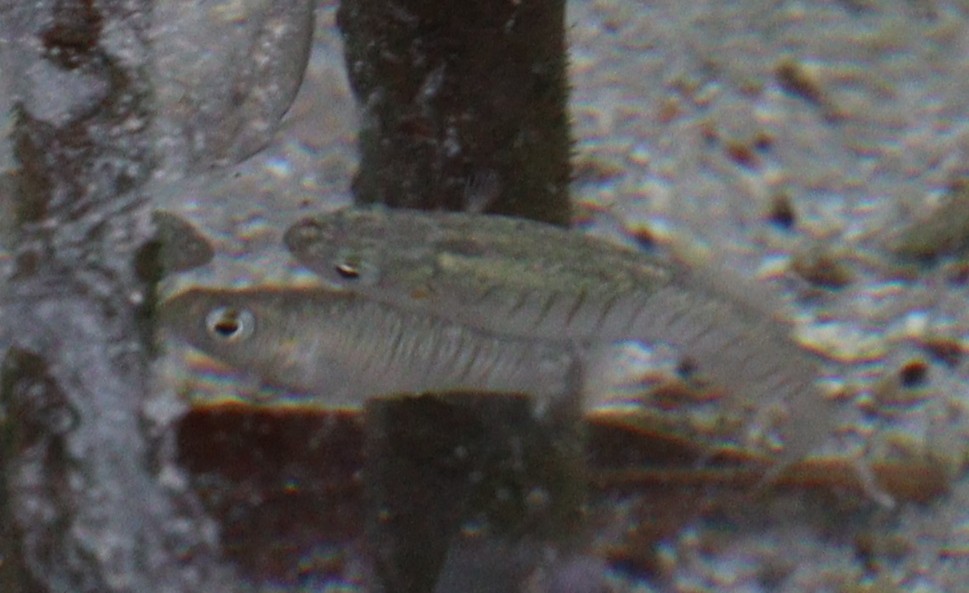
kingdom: Animalia
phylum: Chordata
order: Cyprinodontiformes
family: Cyprinodontidae
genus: Aphanius
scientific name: Aphanius dispar
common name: Arabian toothcarp
